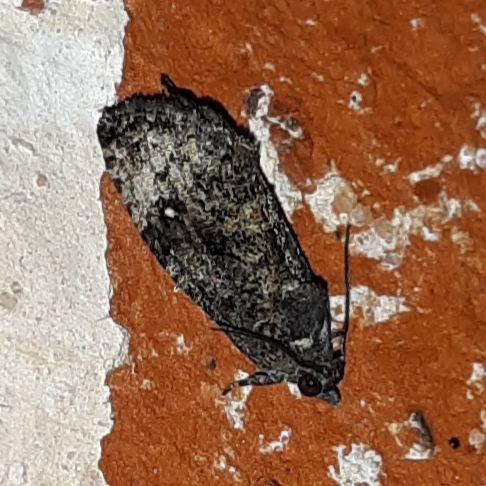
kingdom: Animalia
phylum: Arthropoda
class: Insecta
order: Lepidoptera
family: Tortricidae
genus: Gymnandrosoma
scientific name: Gymnandrosoma punctidiscanum
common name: Dotted ecdytolopha moth
